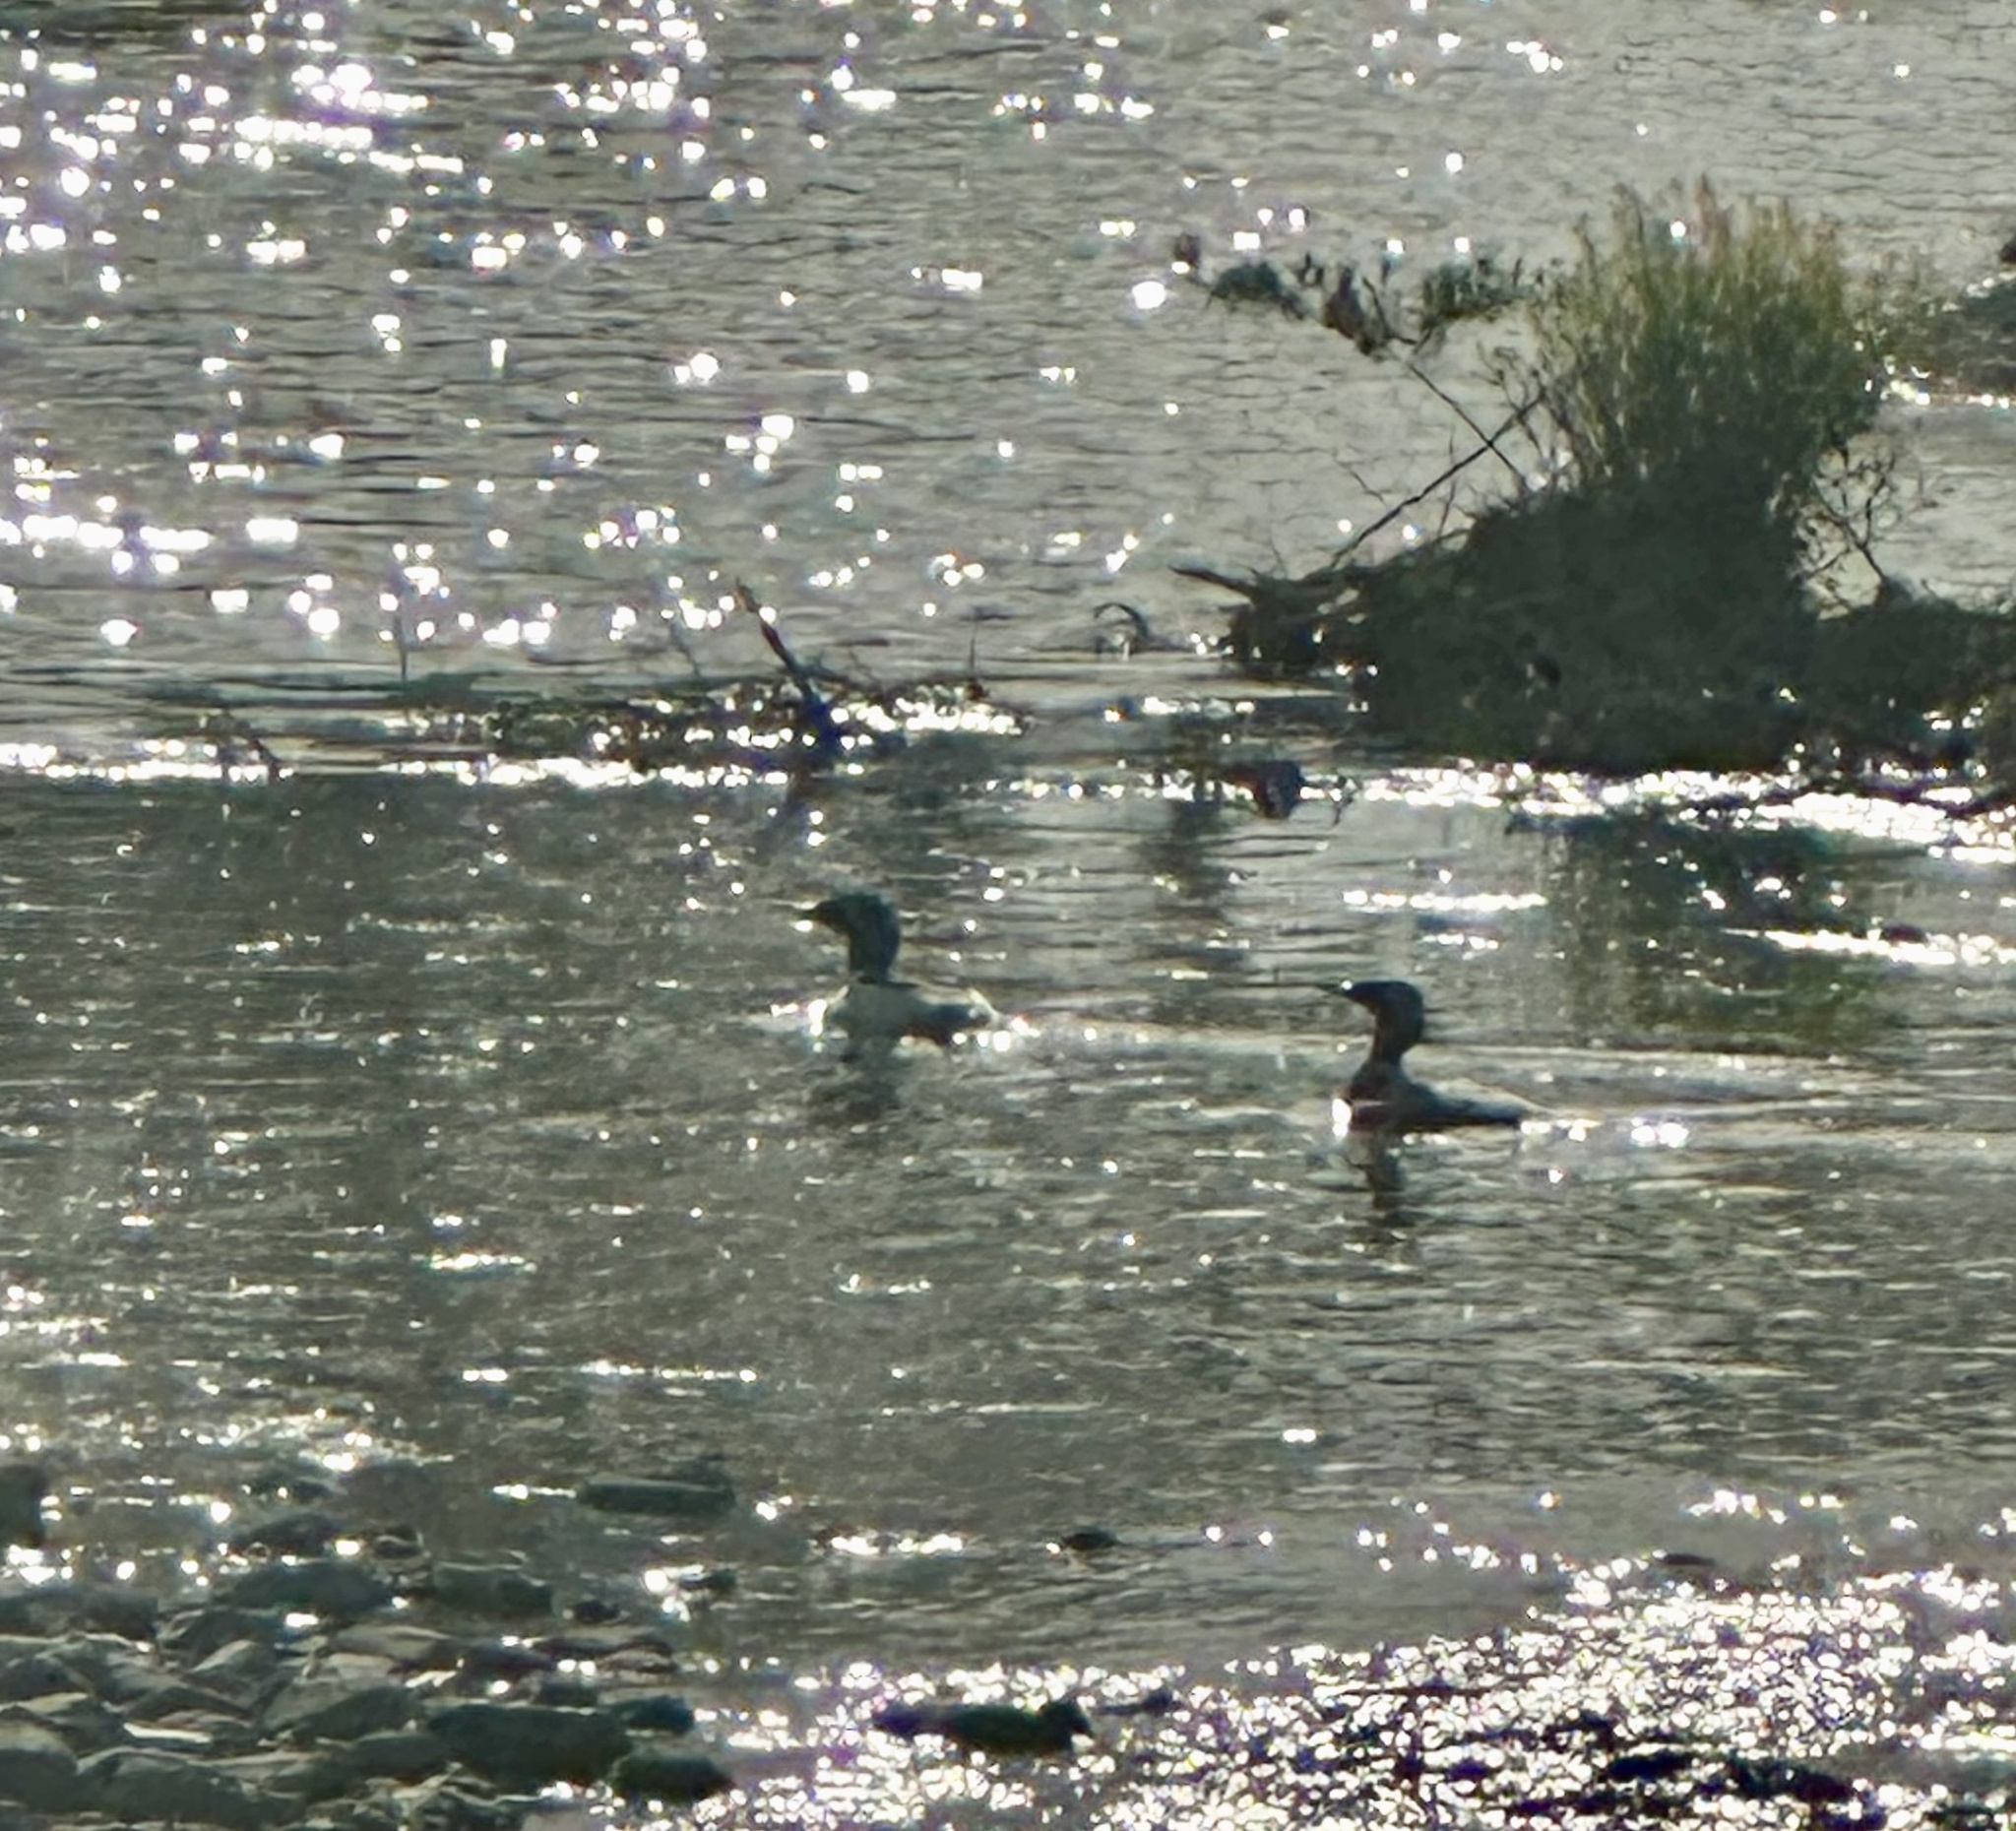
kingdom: Animalia
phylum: Chordata
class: Aves
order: Anseriformes
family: Anatidae
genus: Mergus
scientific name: Mergus merganser
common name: Common merganser
